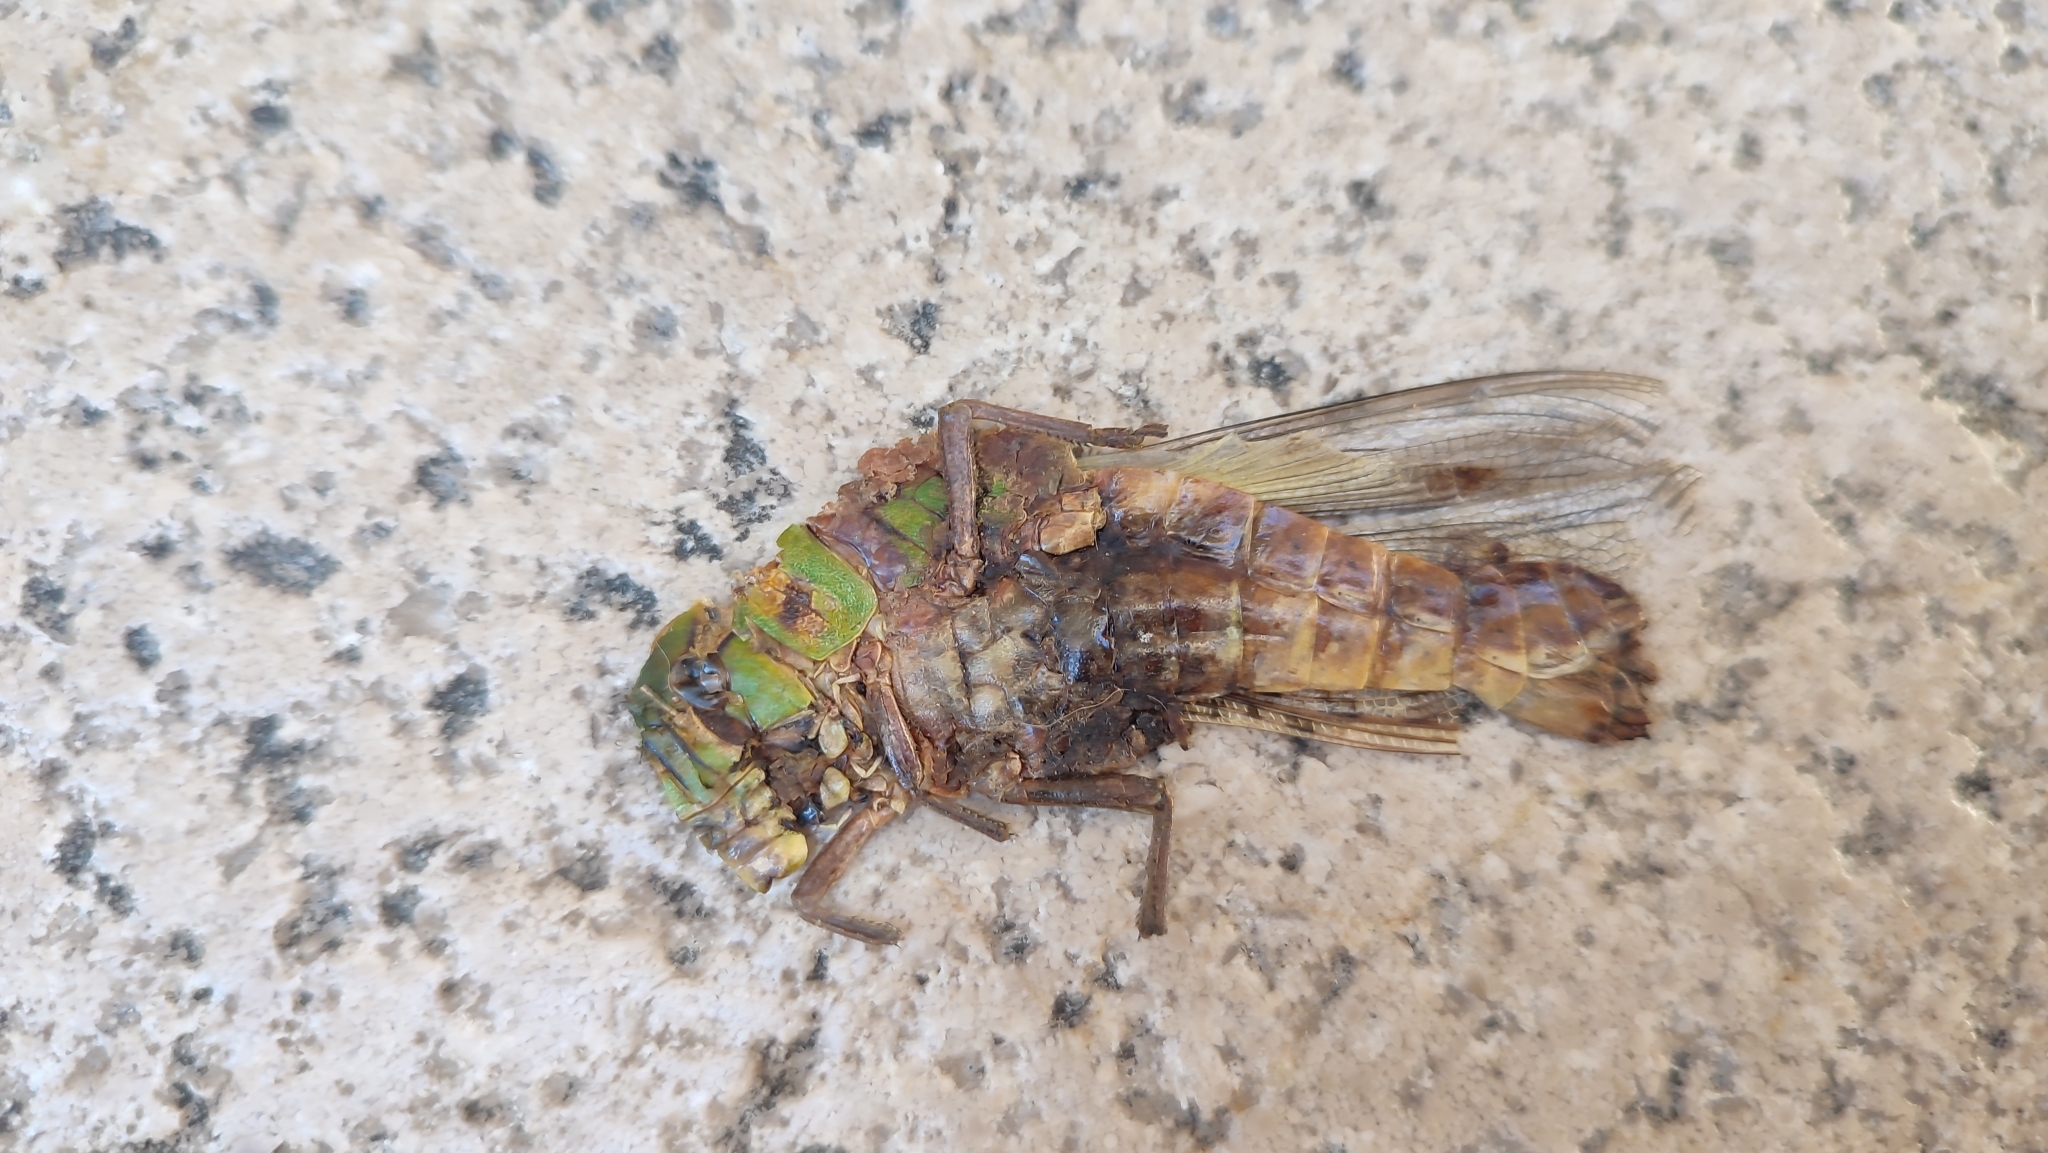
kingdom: Animalia
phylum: Arthropoda
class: Insecta
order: Orthoptera
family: Acrididae
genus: Locusta
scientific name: Locusta migratoria
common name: Migratory locust
